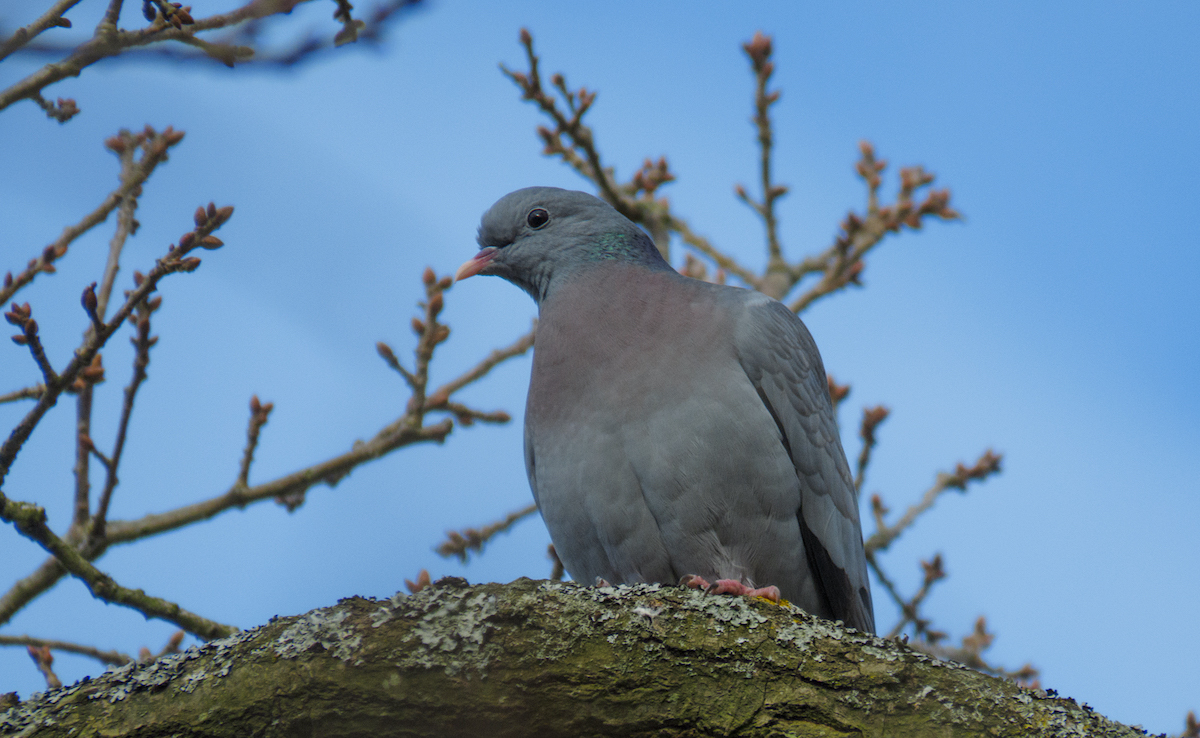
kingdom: Animalia
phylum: Chordata
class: Aves
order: Columbiformes
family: Columbidae
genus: Columba
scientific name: Columba oenas
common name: Stock dove
